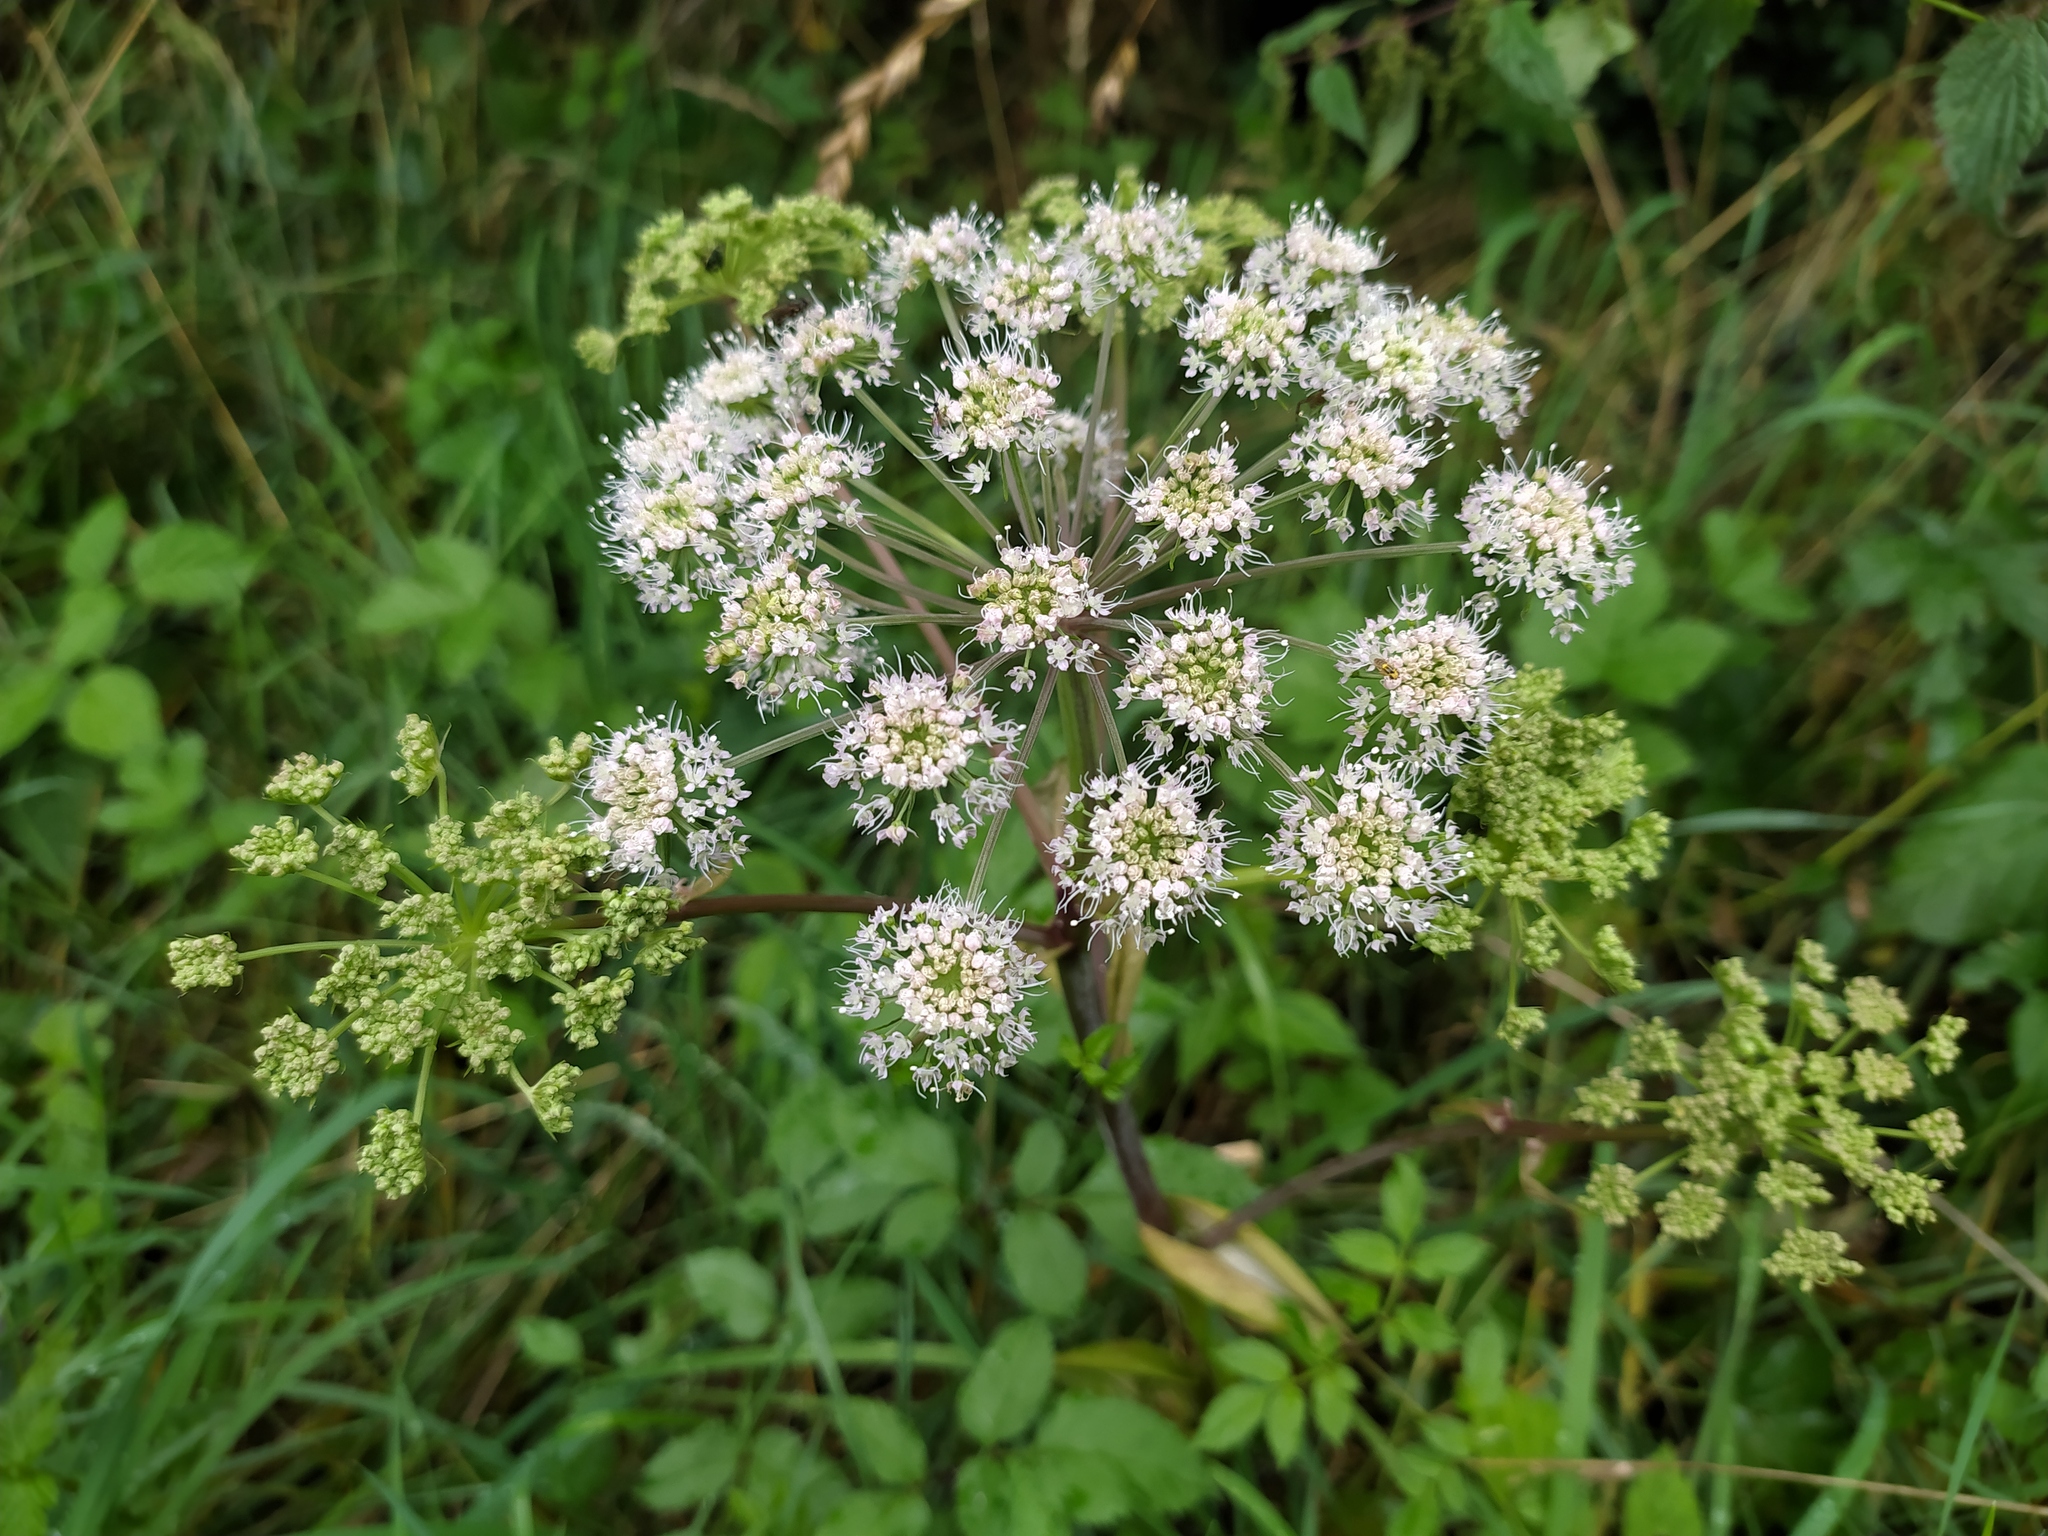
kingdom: Plantae
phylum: Tracheophyta
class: Magnoliopsida
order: Apiales
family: Apiaceae
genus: Angelica
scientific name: Angelica sylvestris
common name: Wild angelica
